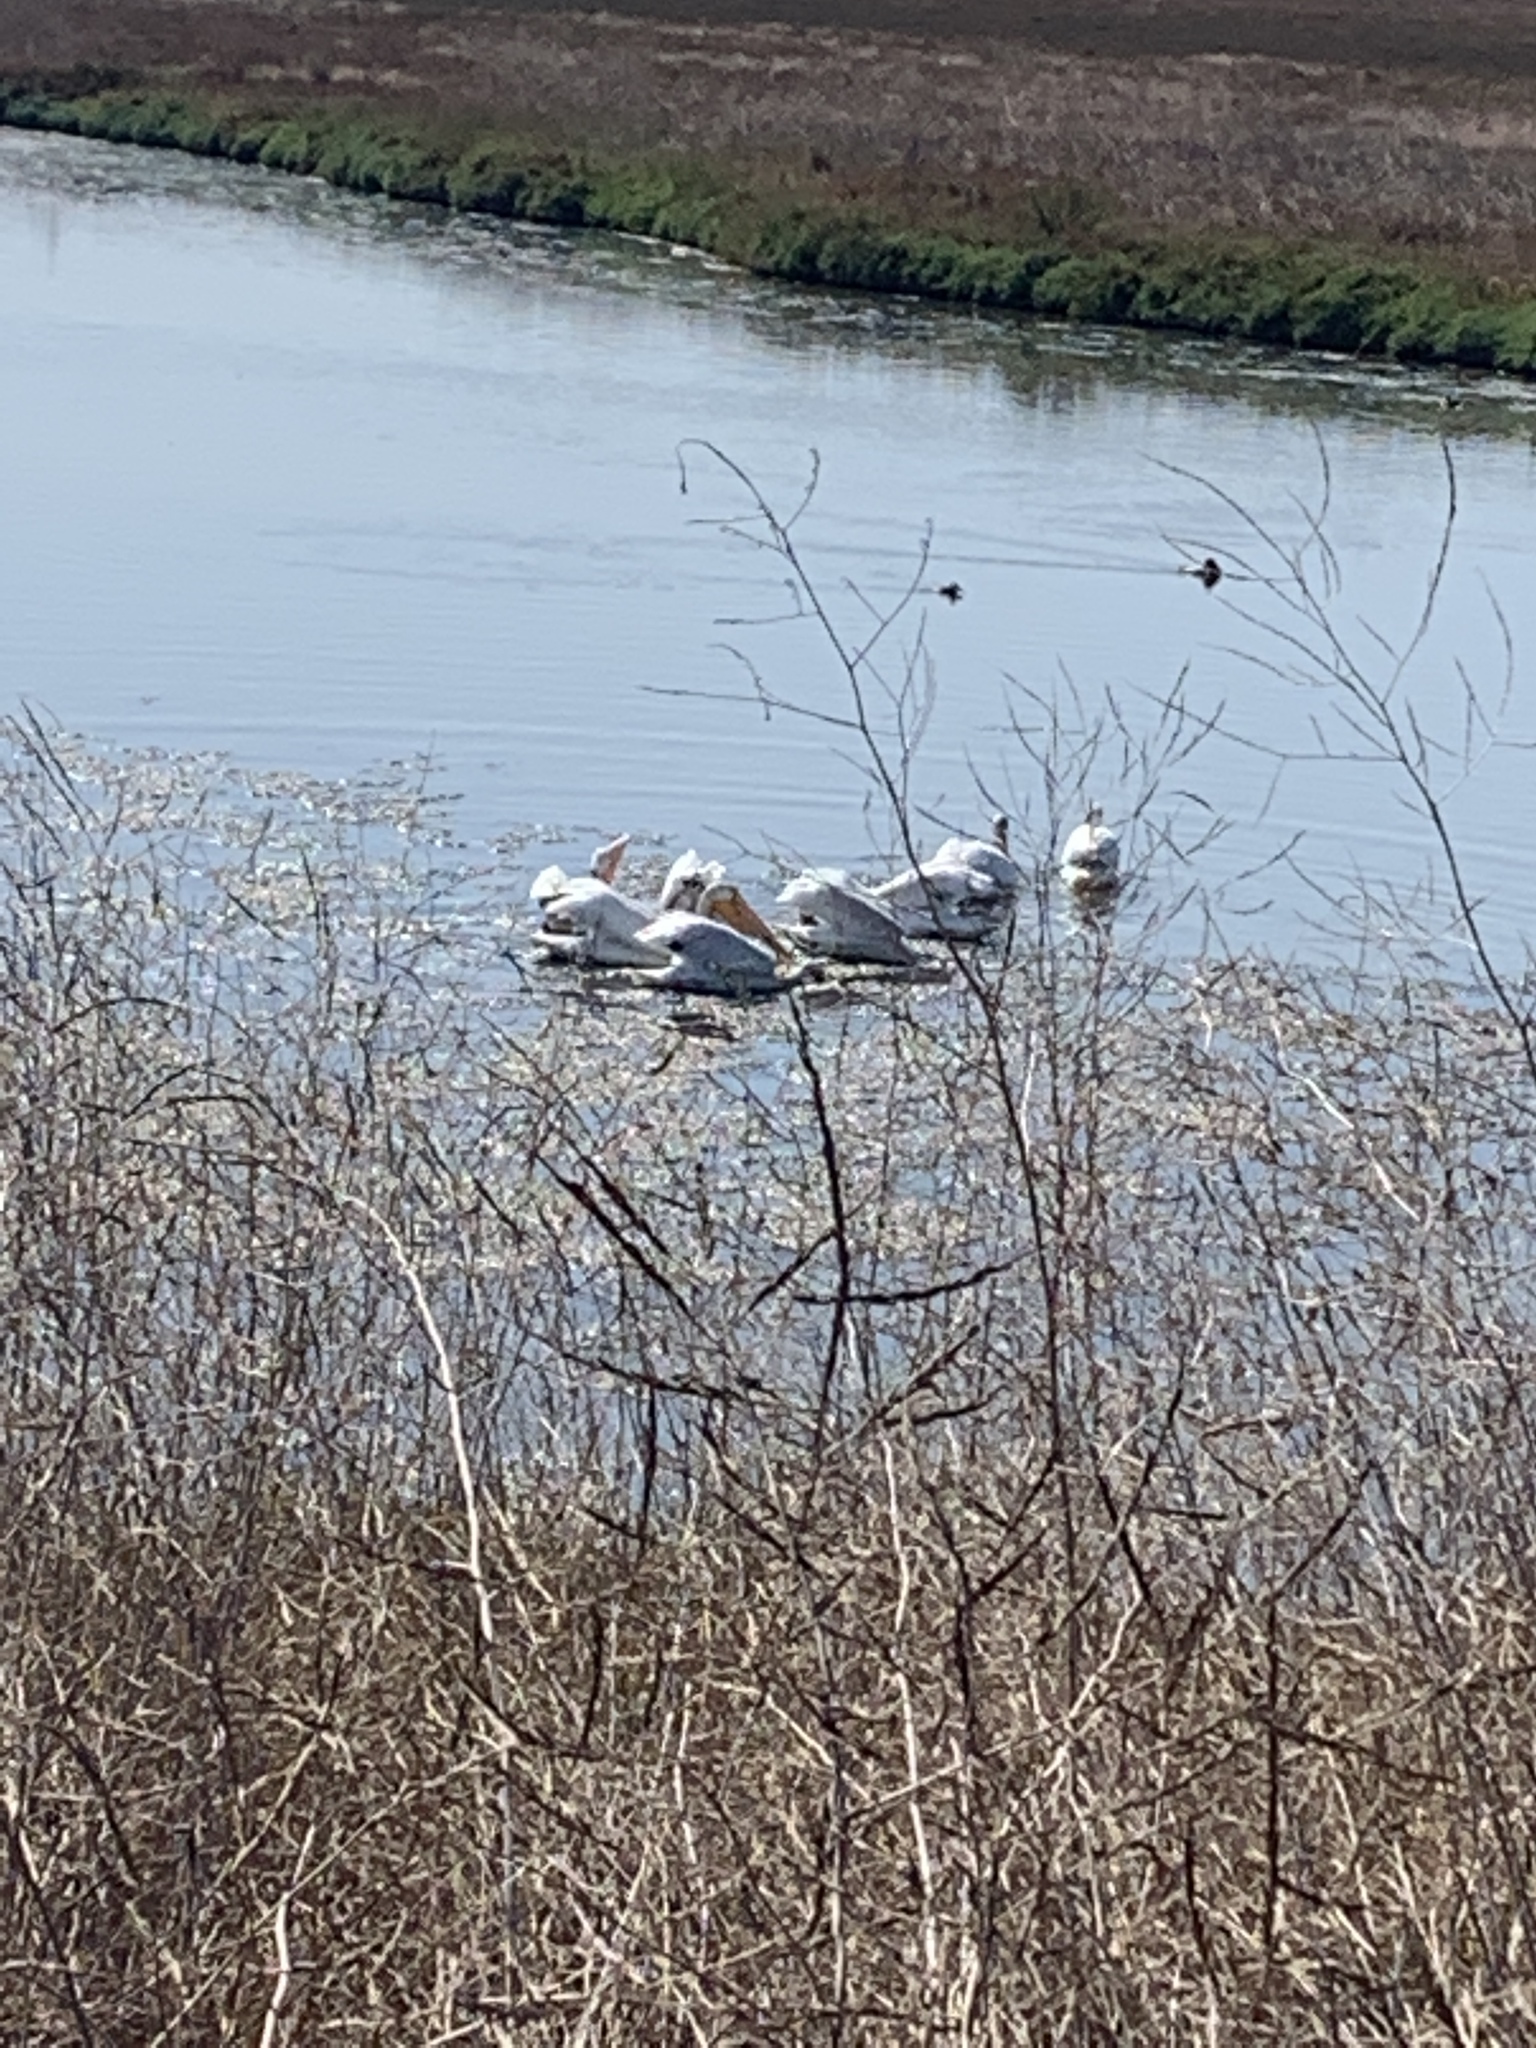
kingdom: Animalia
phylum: Chordata
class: Aves
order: Pelecaniformes
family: Pelecanidae
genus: Pelecanus
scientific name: Pelecanus erythrorhynchos
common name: American white pelican
